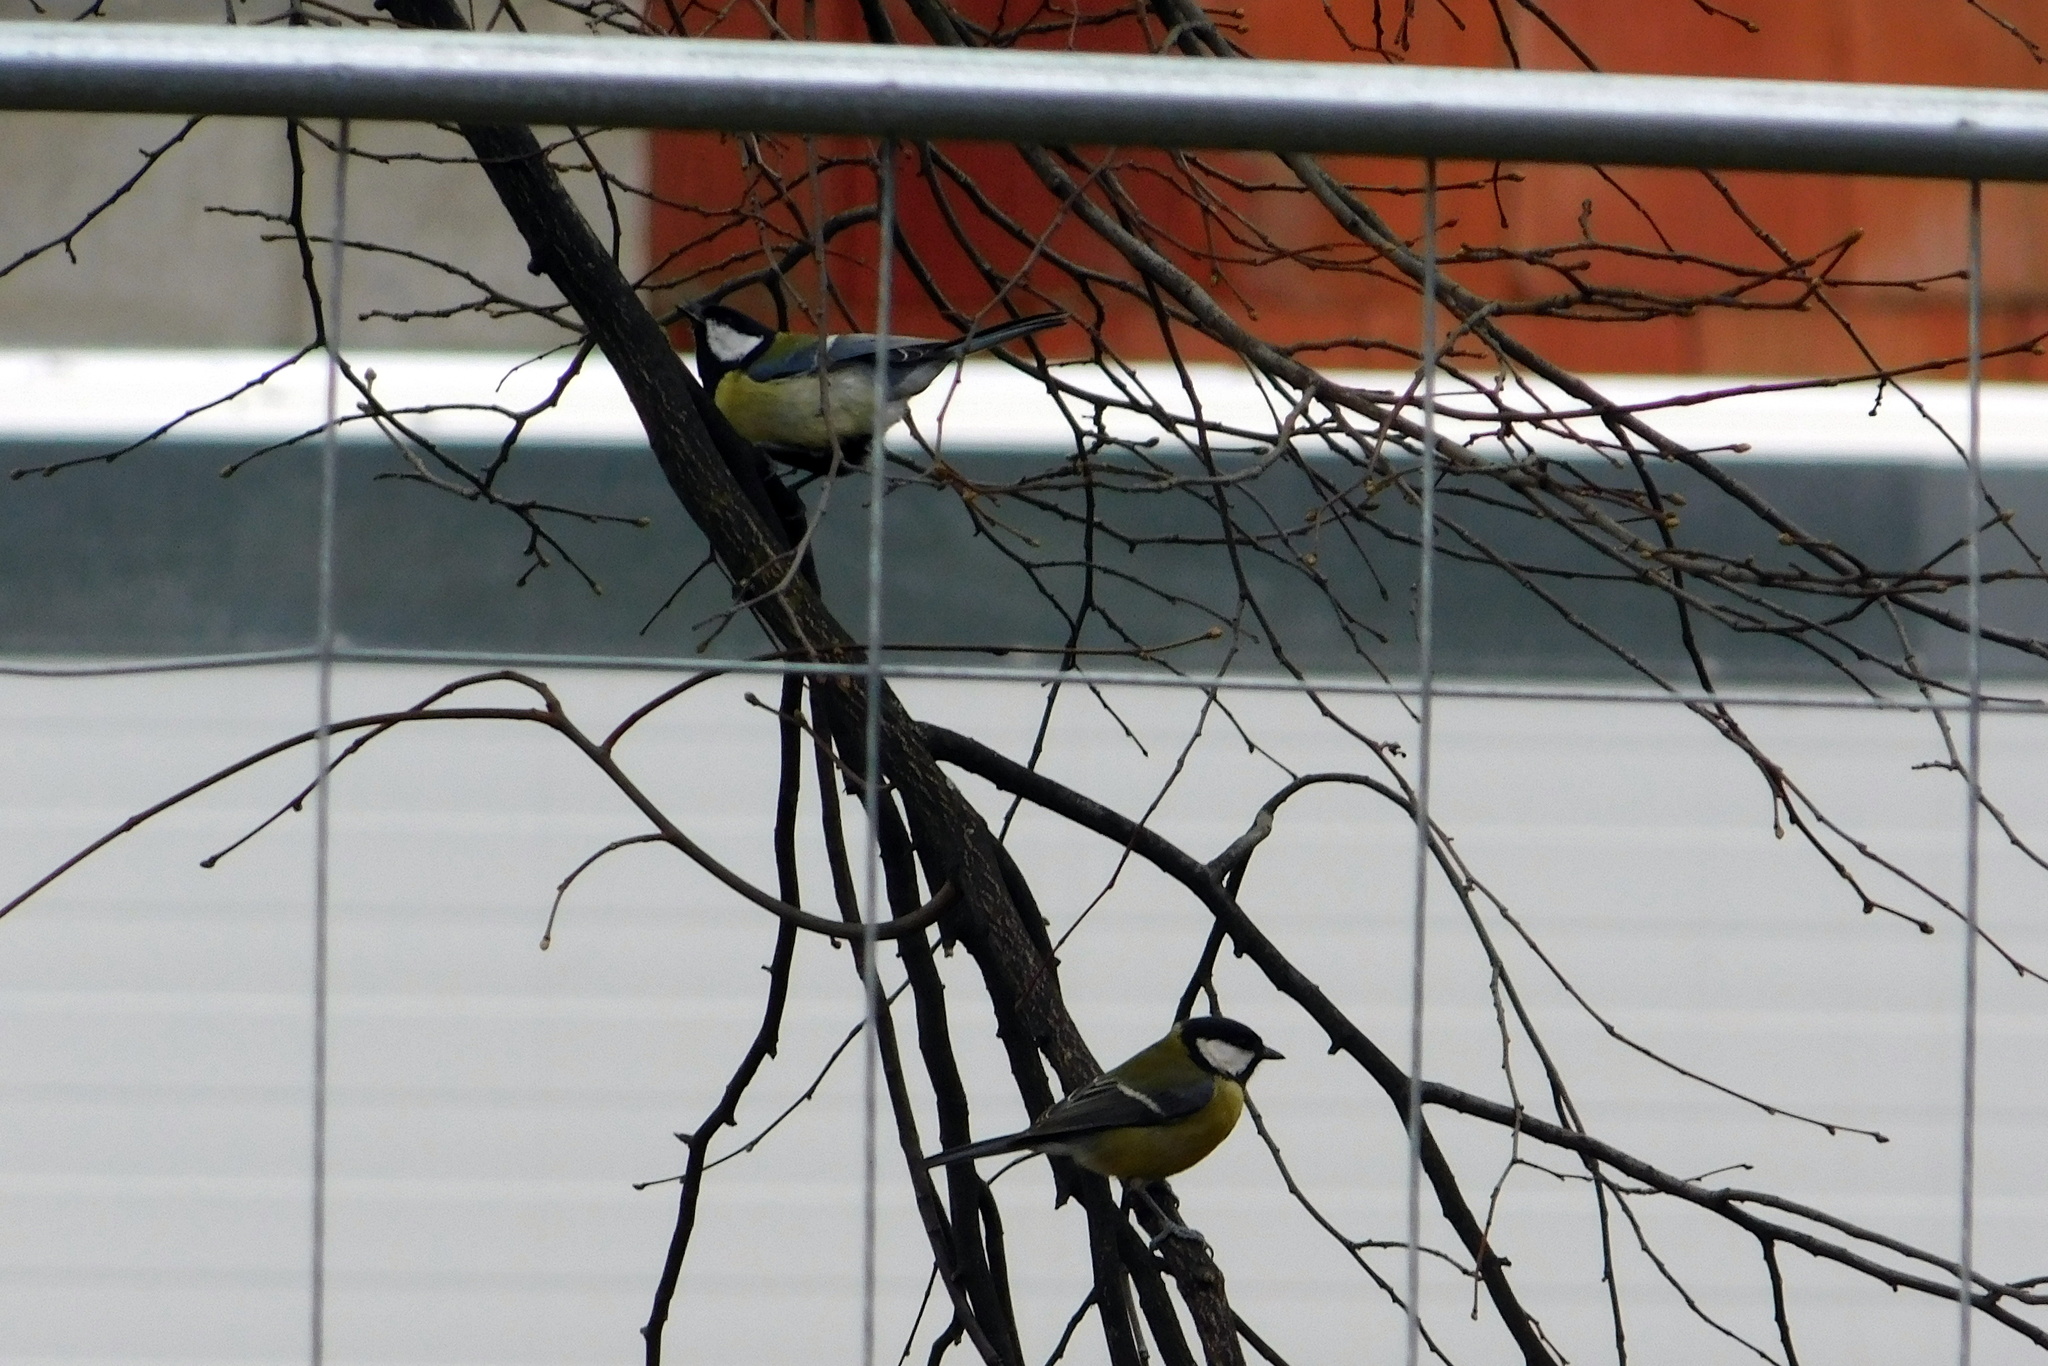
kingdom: Animalia
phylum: Chordata
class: Aves
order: Passeriformes
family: Paridae
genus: Parus
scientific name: Parus major
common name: Great tit
